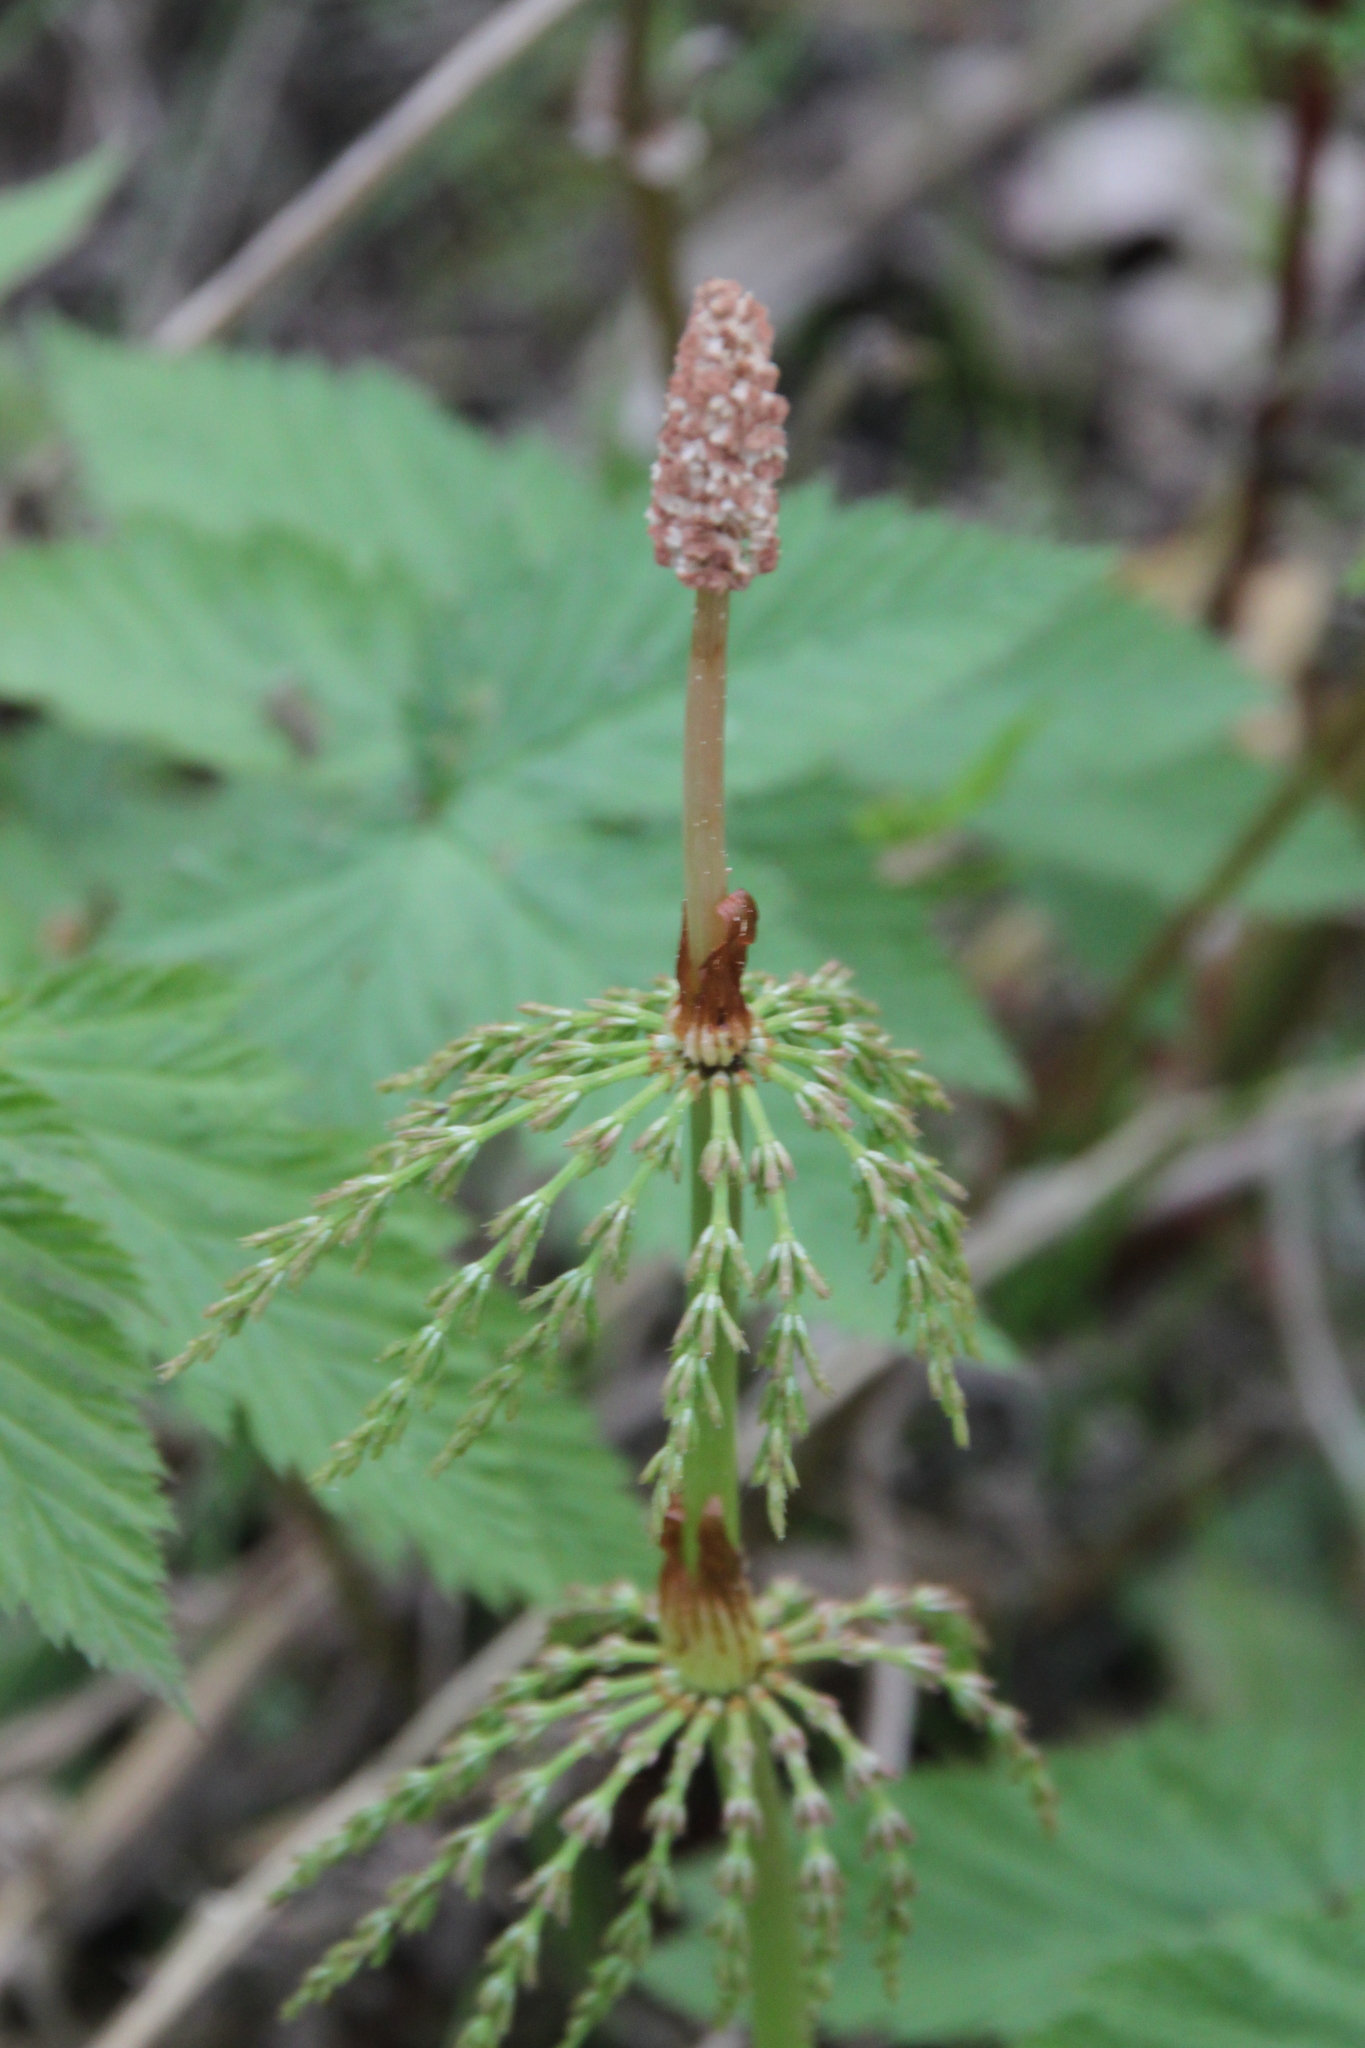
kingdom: Plantae
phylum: Tracheophyta
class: Polypodiopsida
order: Equisetales
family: Equisetaceae
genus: Equisetum
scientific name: Equisetum sylvaticum
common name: Wood horsetail
